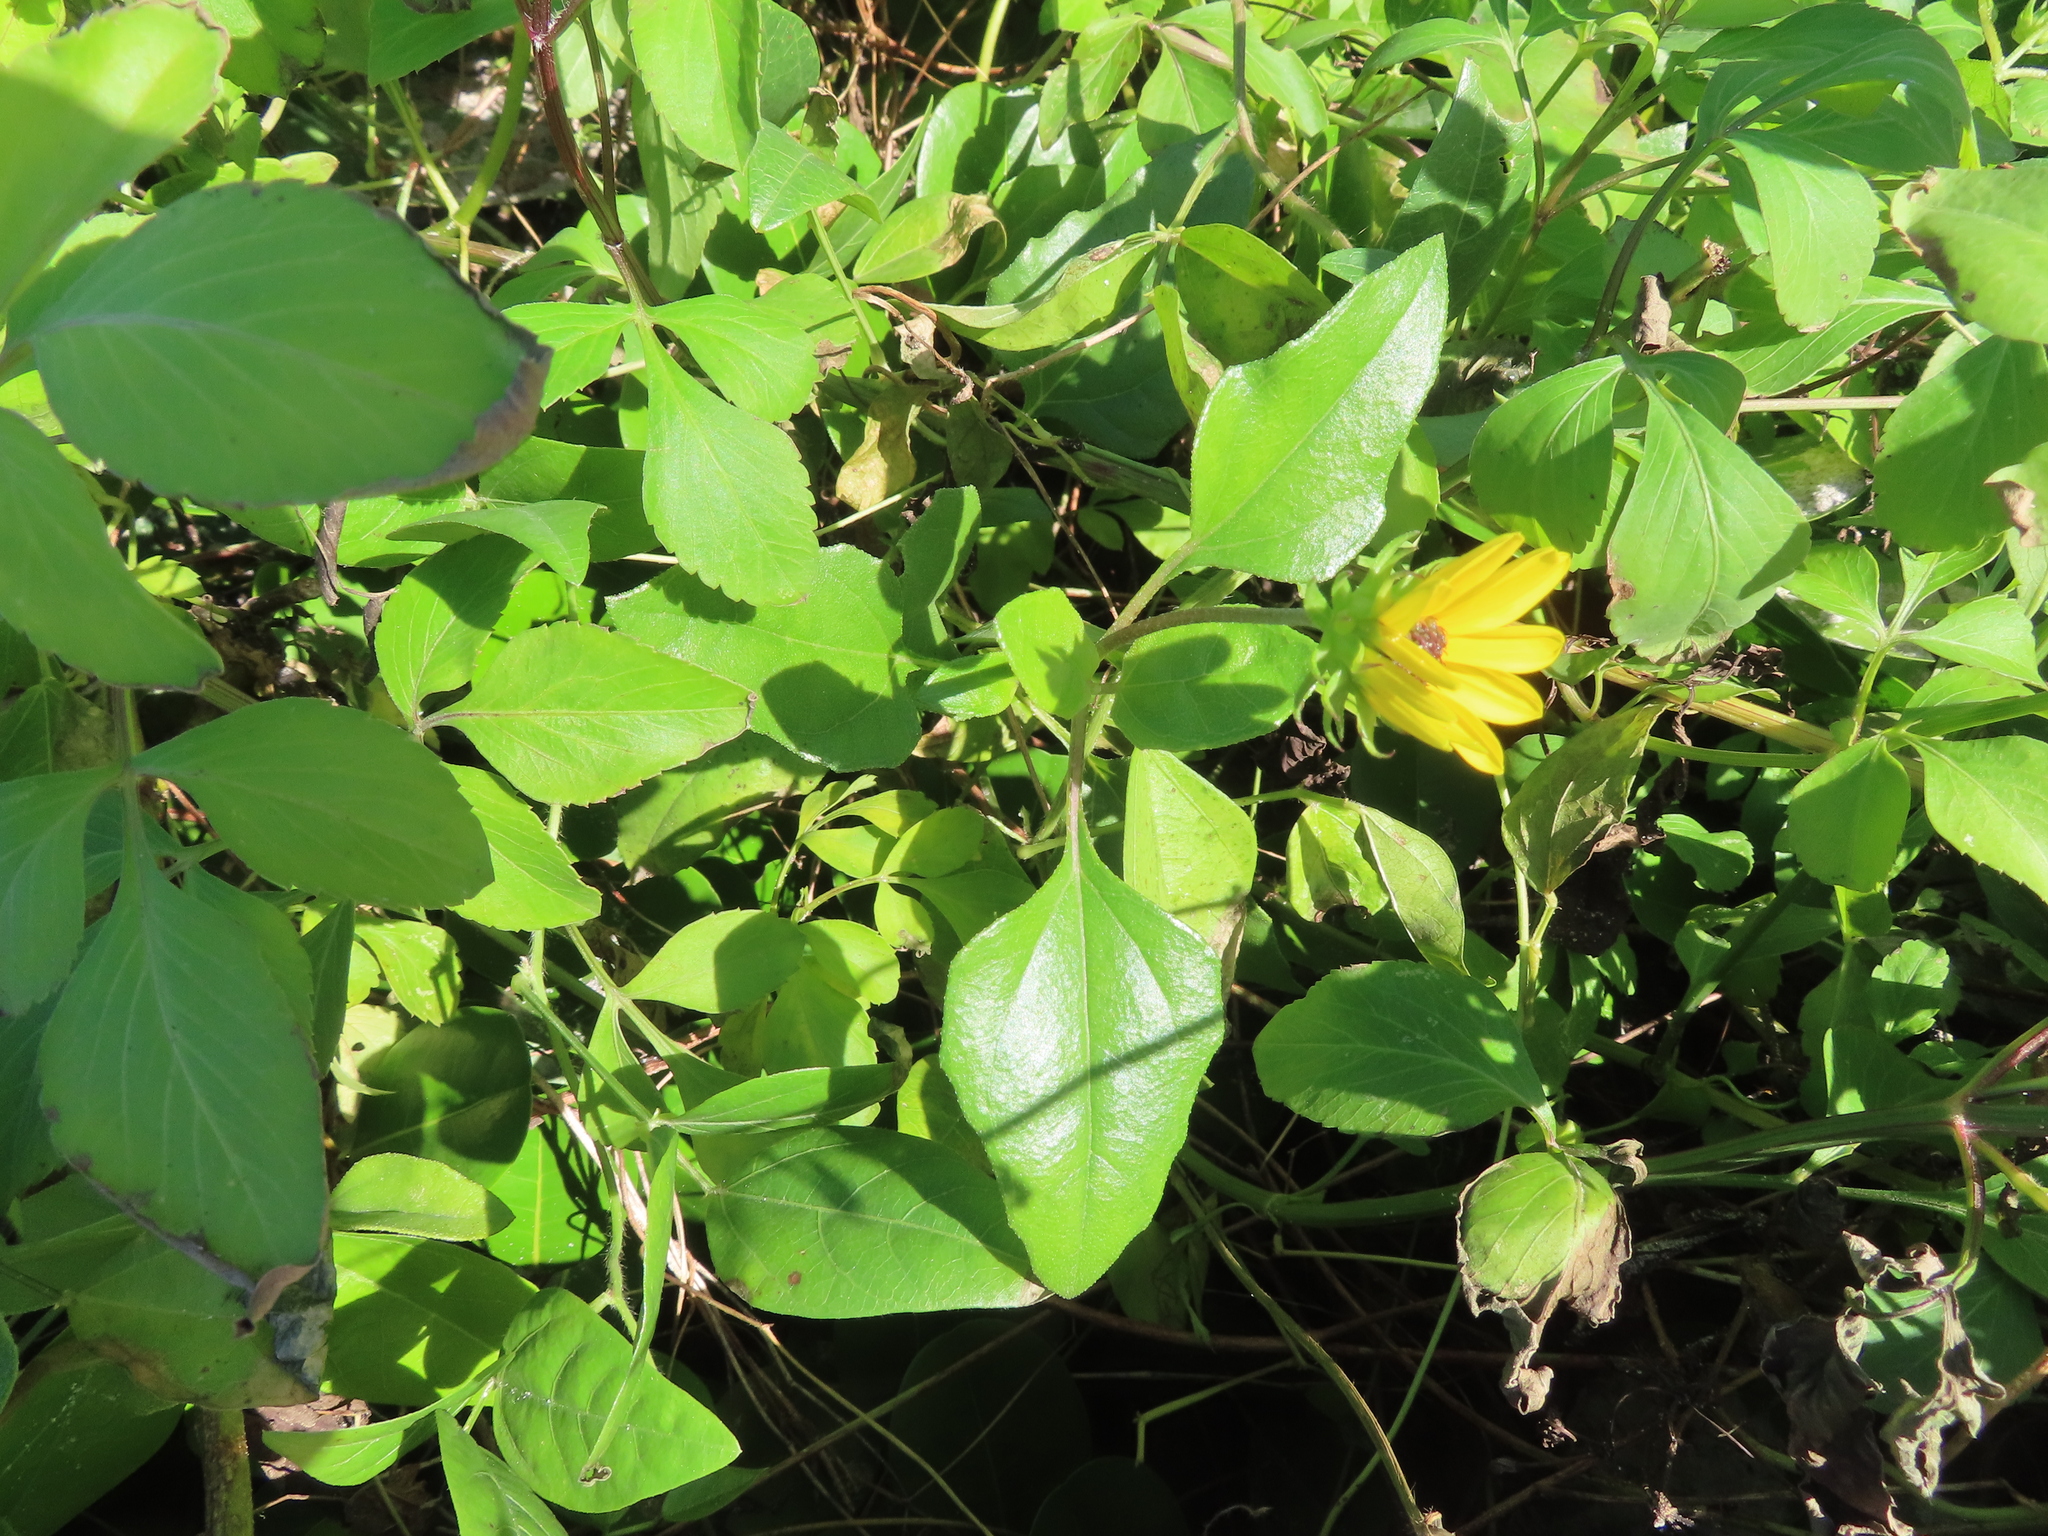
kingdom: Plantae
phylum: Tracheophyta
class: Magnoliopsida
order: Asterales
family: Asteraceae
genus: Helianthus
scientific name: Helianthus debilis
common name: Weak sunflower
